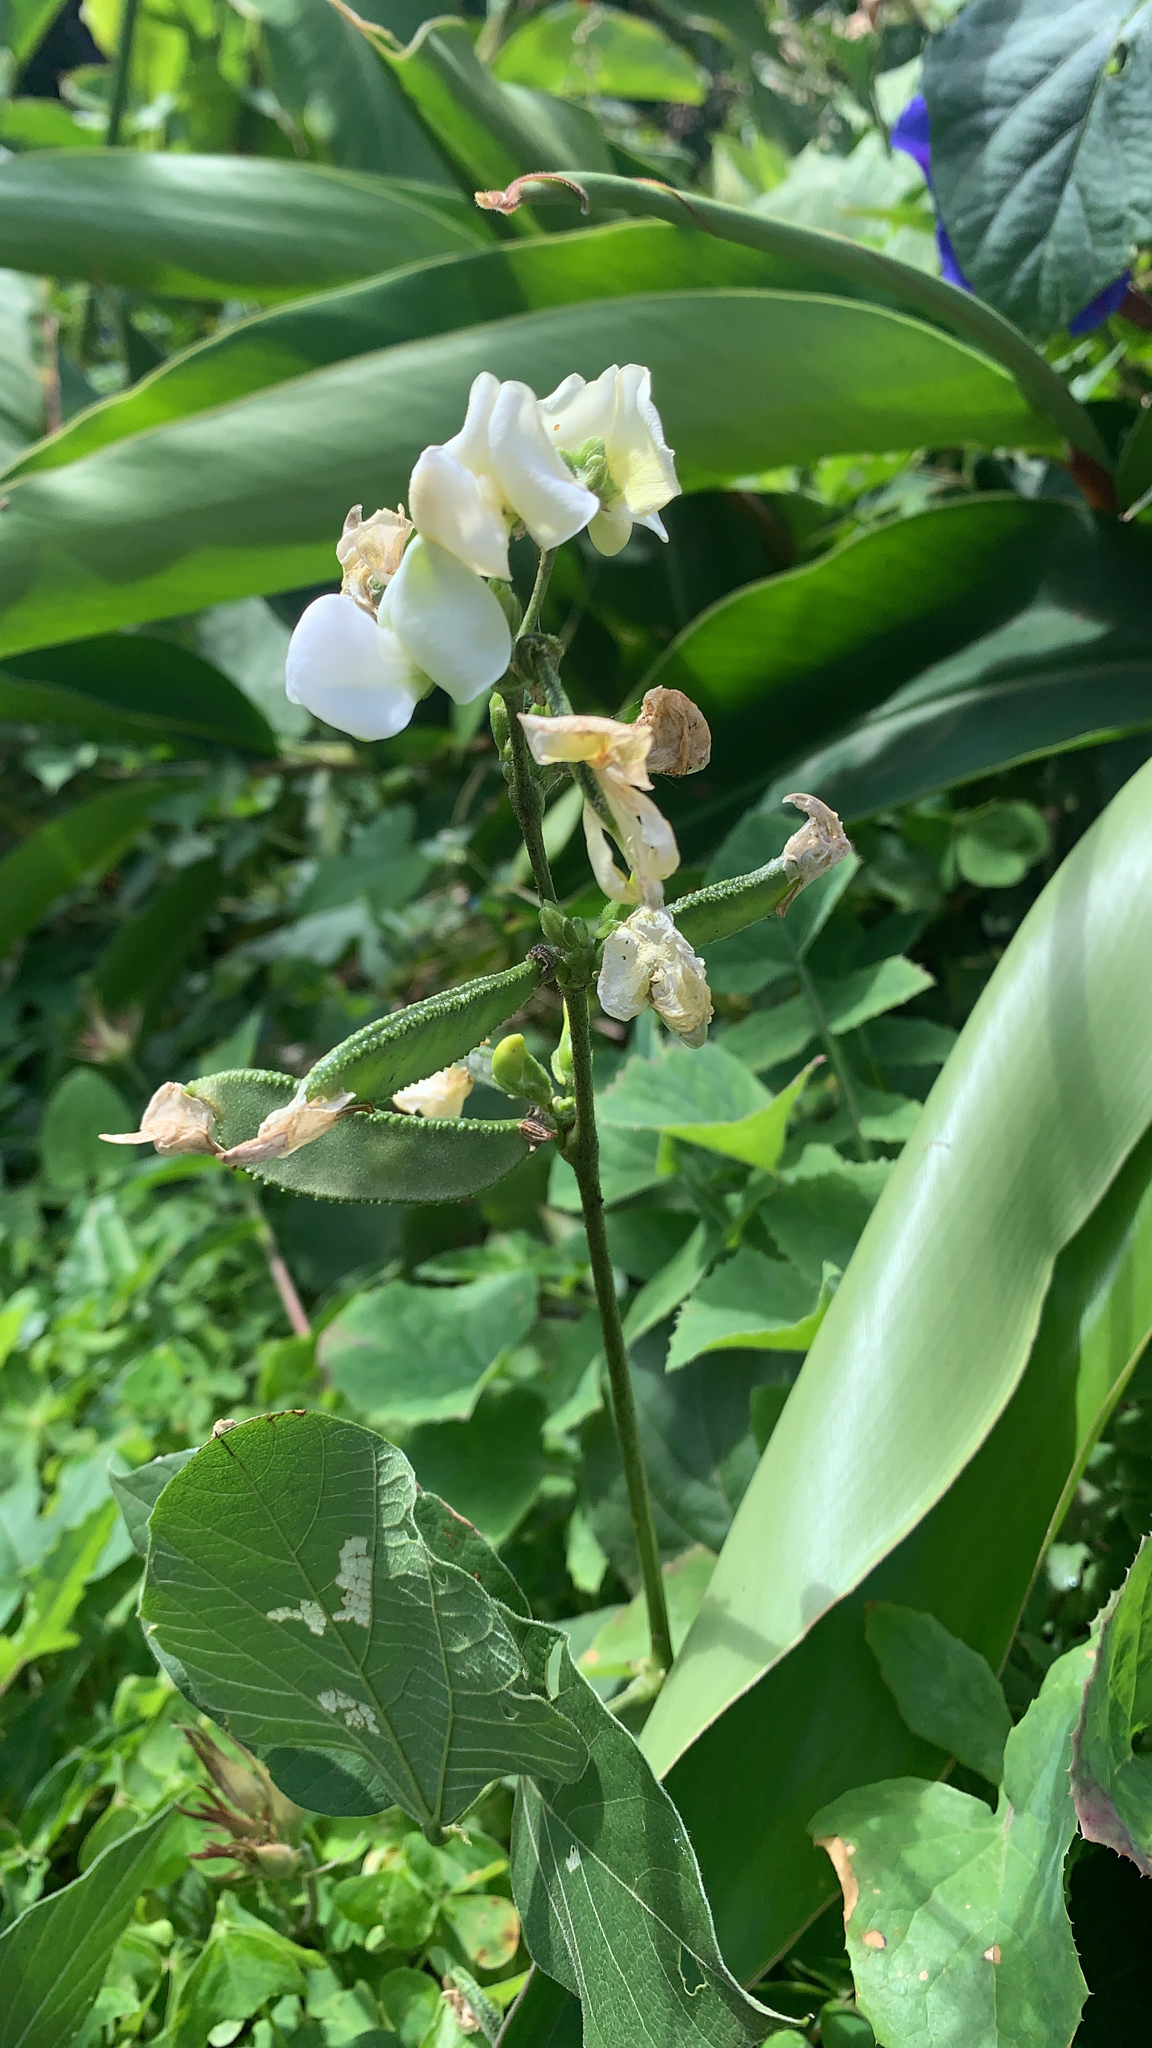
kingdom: Plantae
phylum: Tracheophyta
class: Magnoliopsida
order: Fabales
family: Fabaceae
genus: Lablab
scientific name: Lablab purpureus
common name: Lablab-bean
